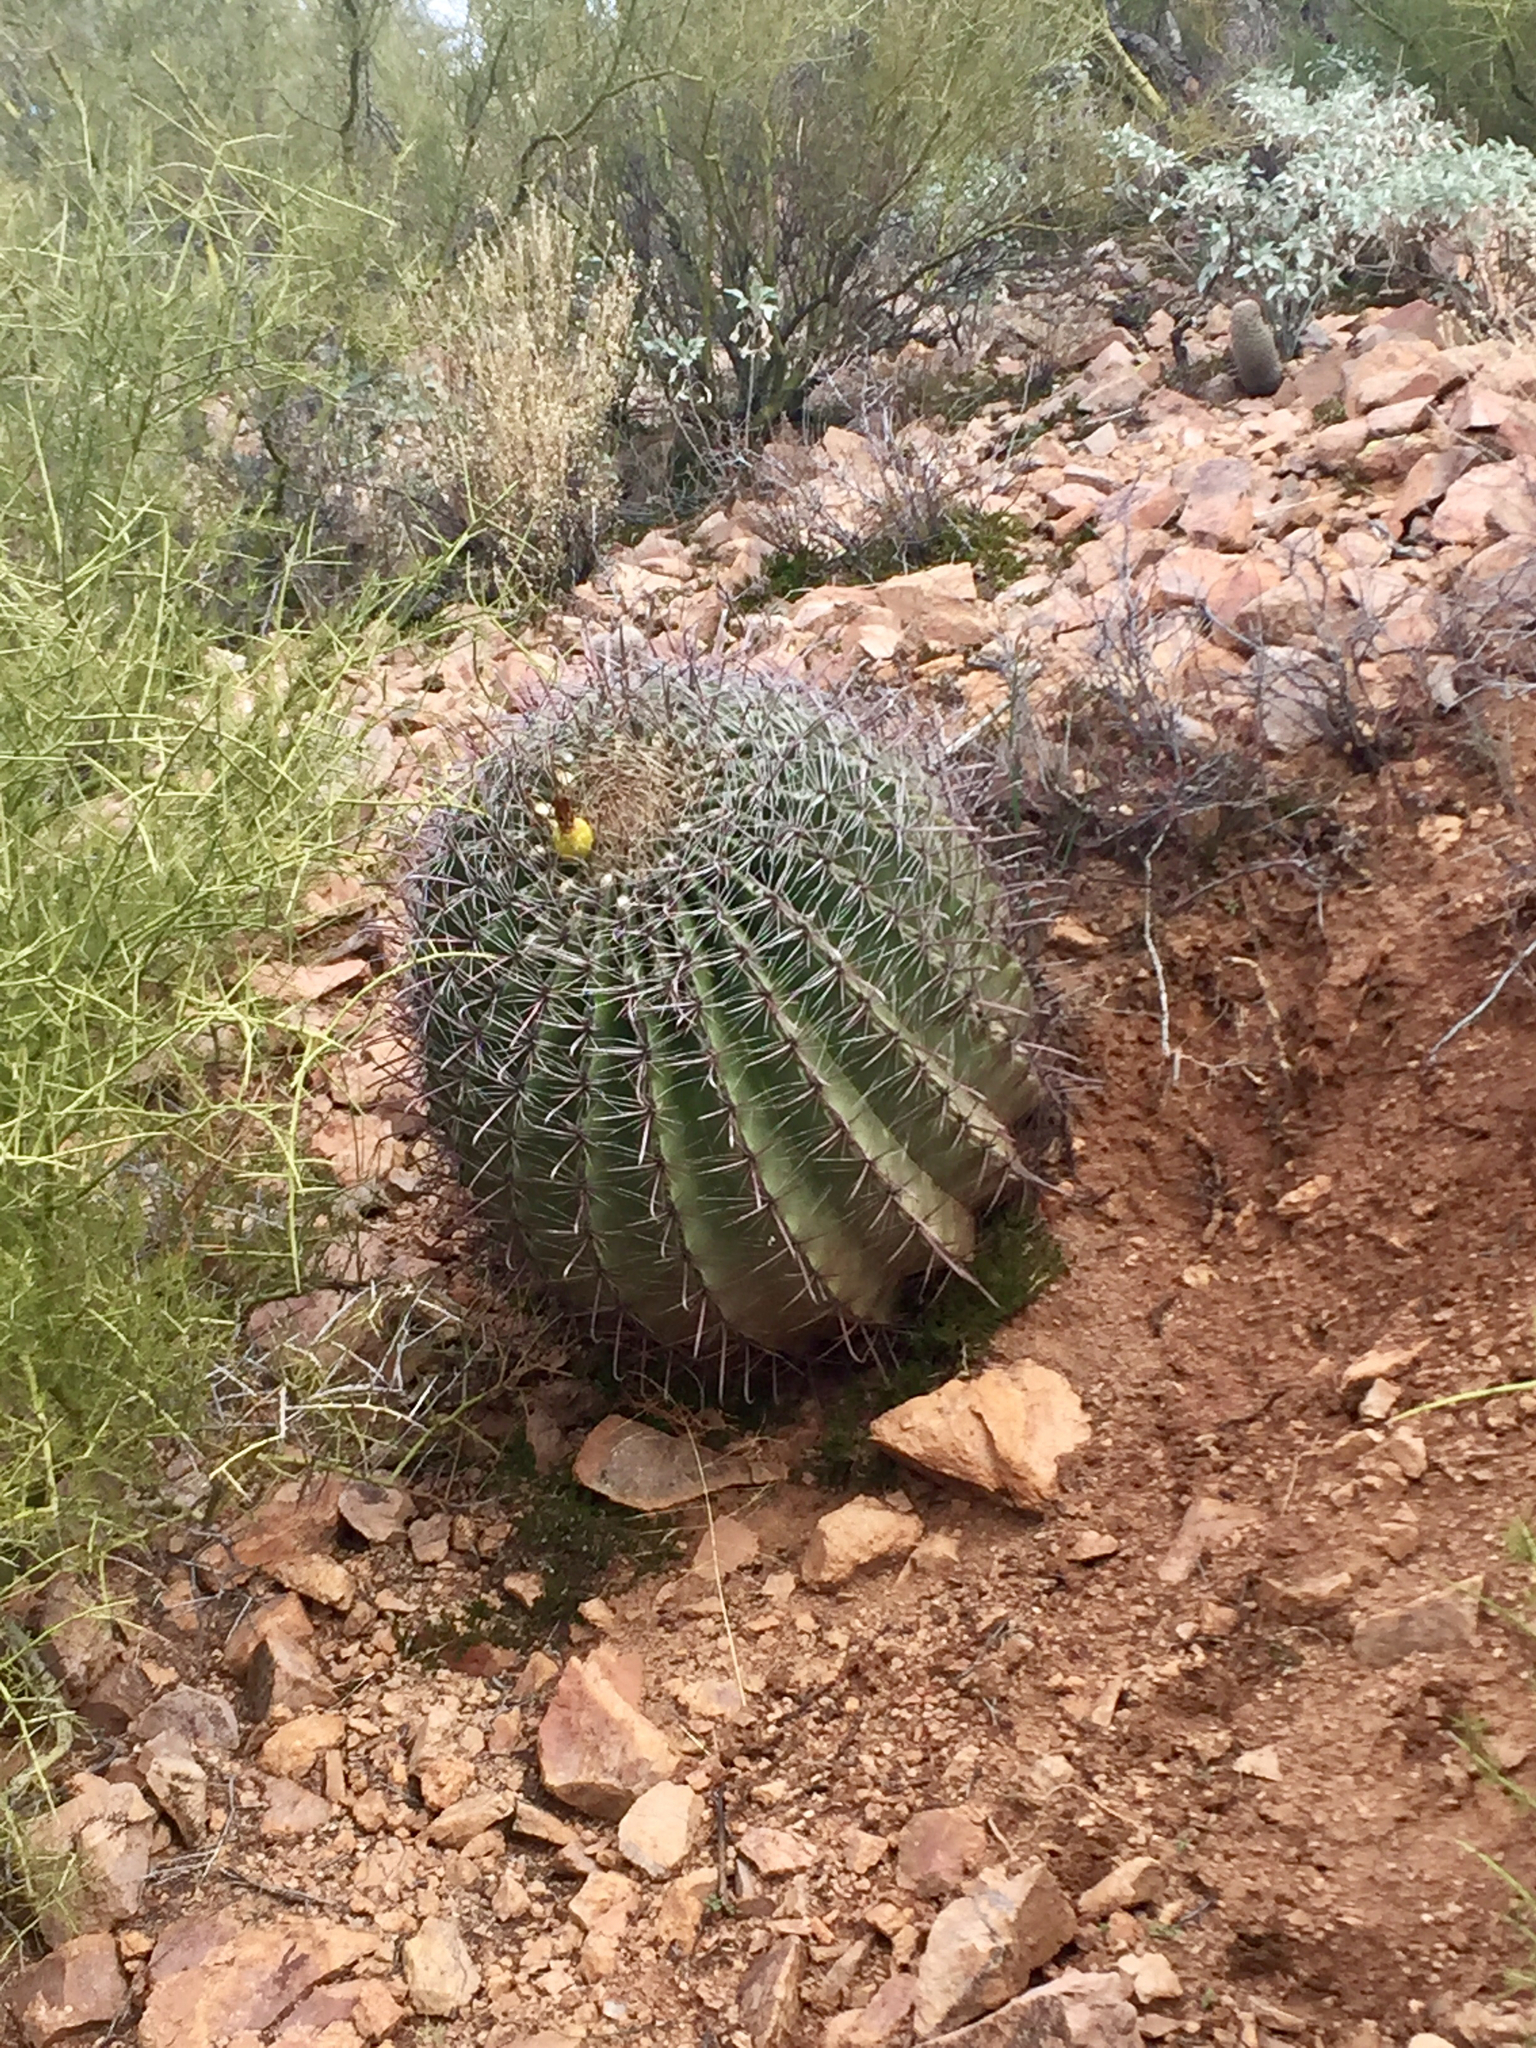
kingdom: Plantae
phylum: Tracheophyta
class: Magnoliopsida
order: Caryophyllales
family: Cactaceae
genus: Ferocactus
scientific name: Ferocactus wislizeni
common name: Candy barrel cactus
